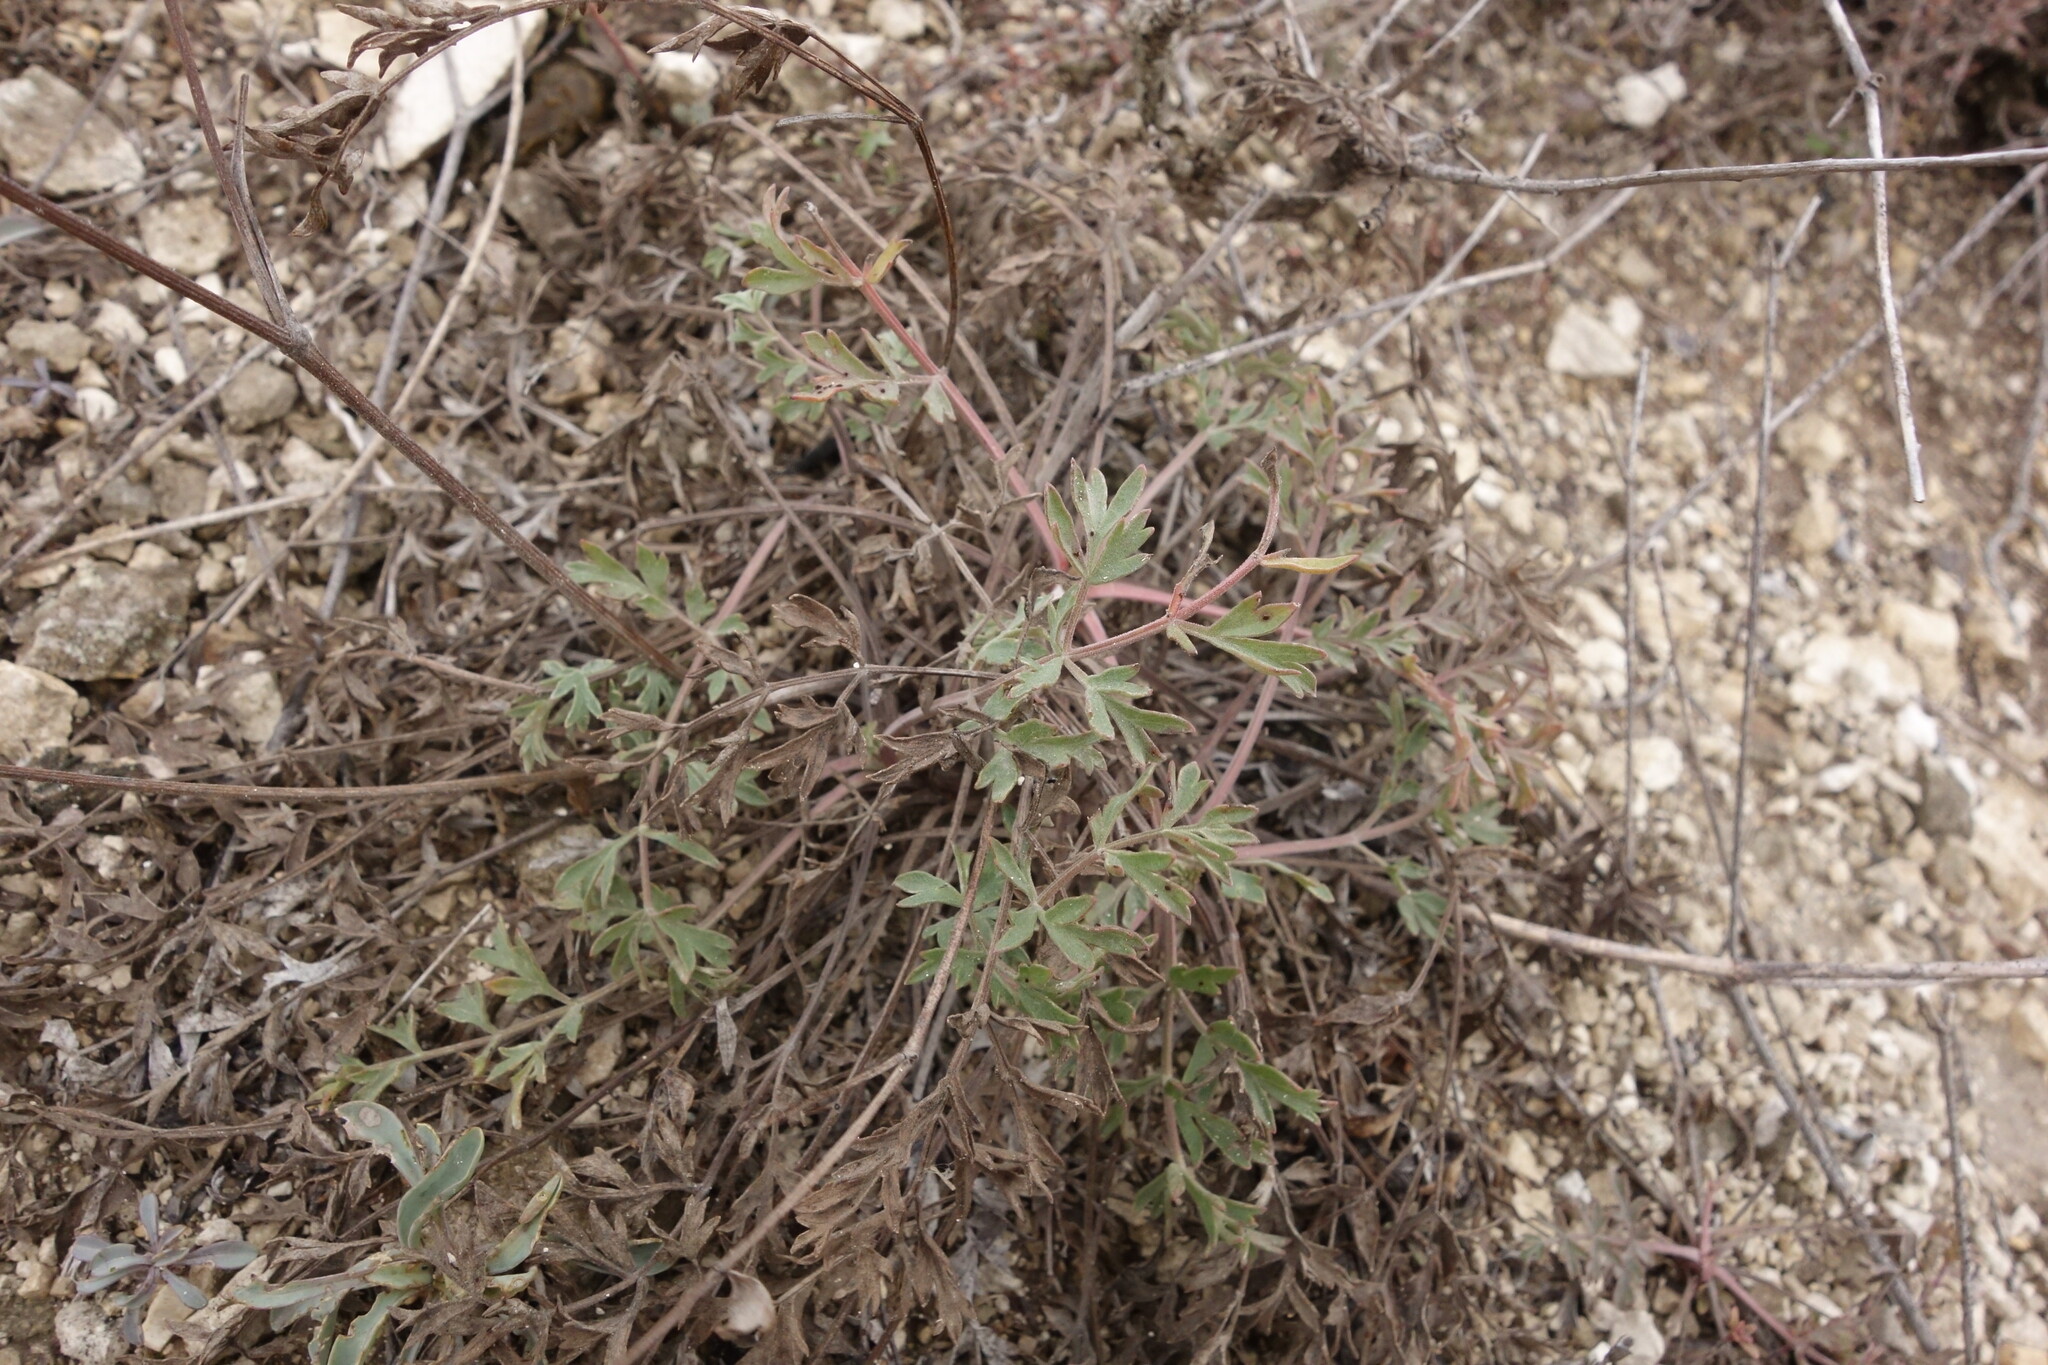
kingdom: Plantae
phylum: Tracheophyta
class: Magnoliopsida
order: Apiales
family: Apiaceae
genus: Pimpinella
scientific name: Pimpinella tragium
